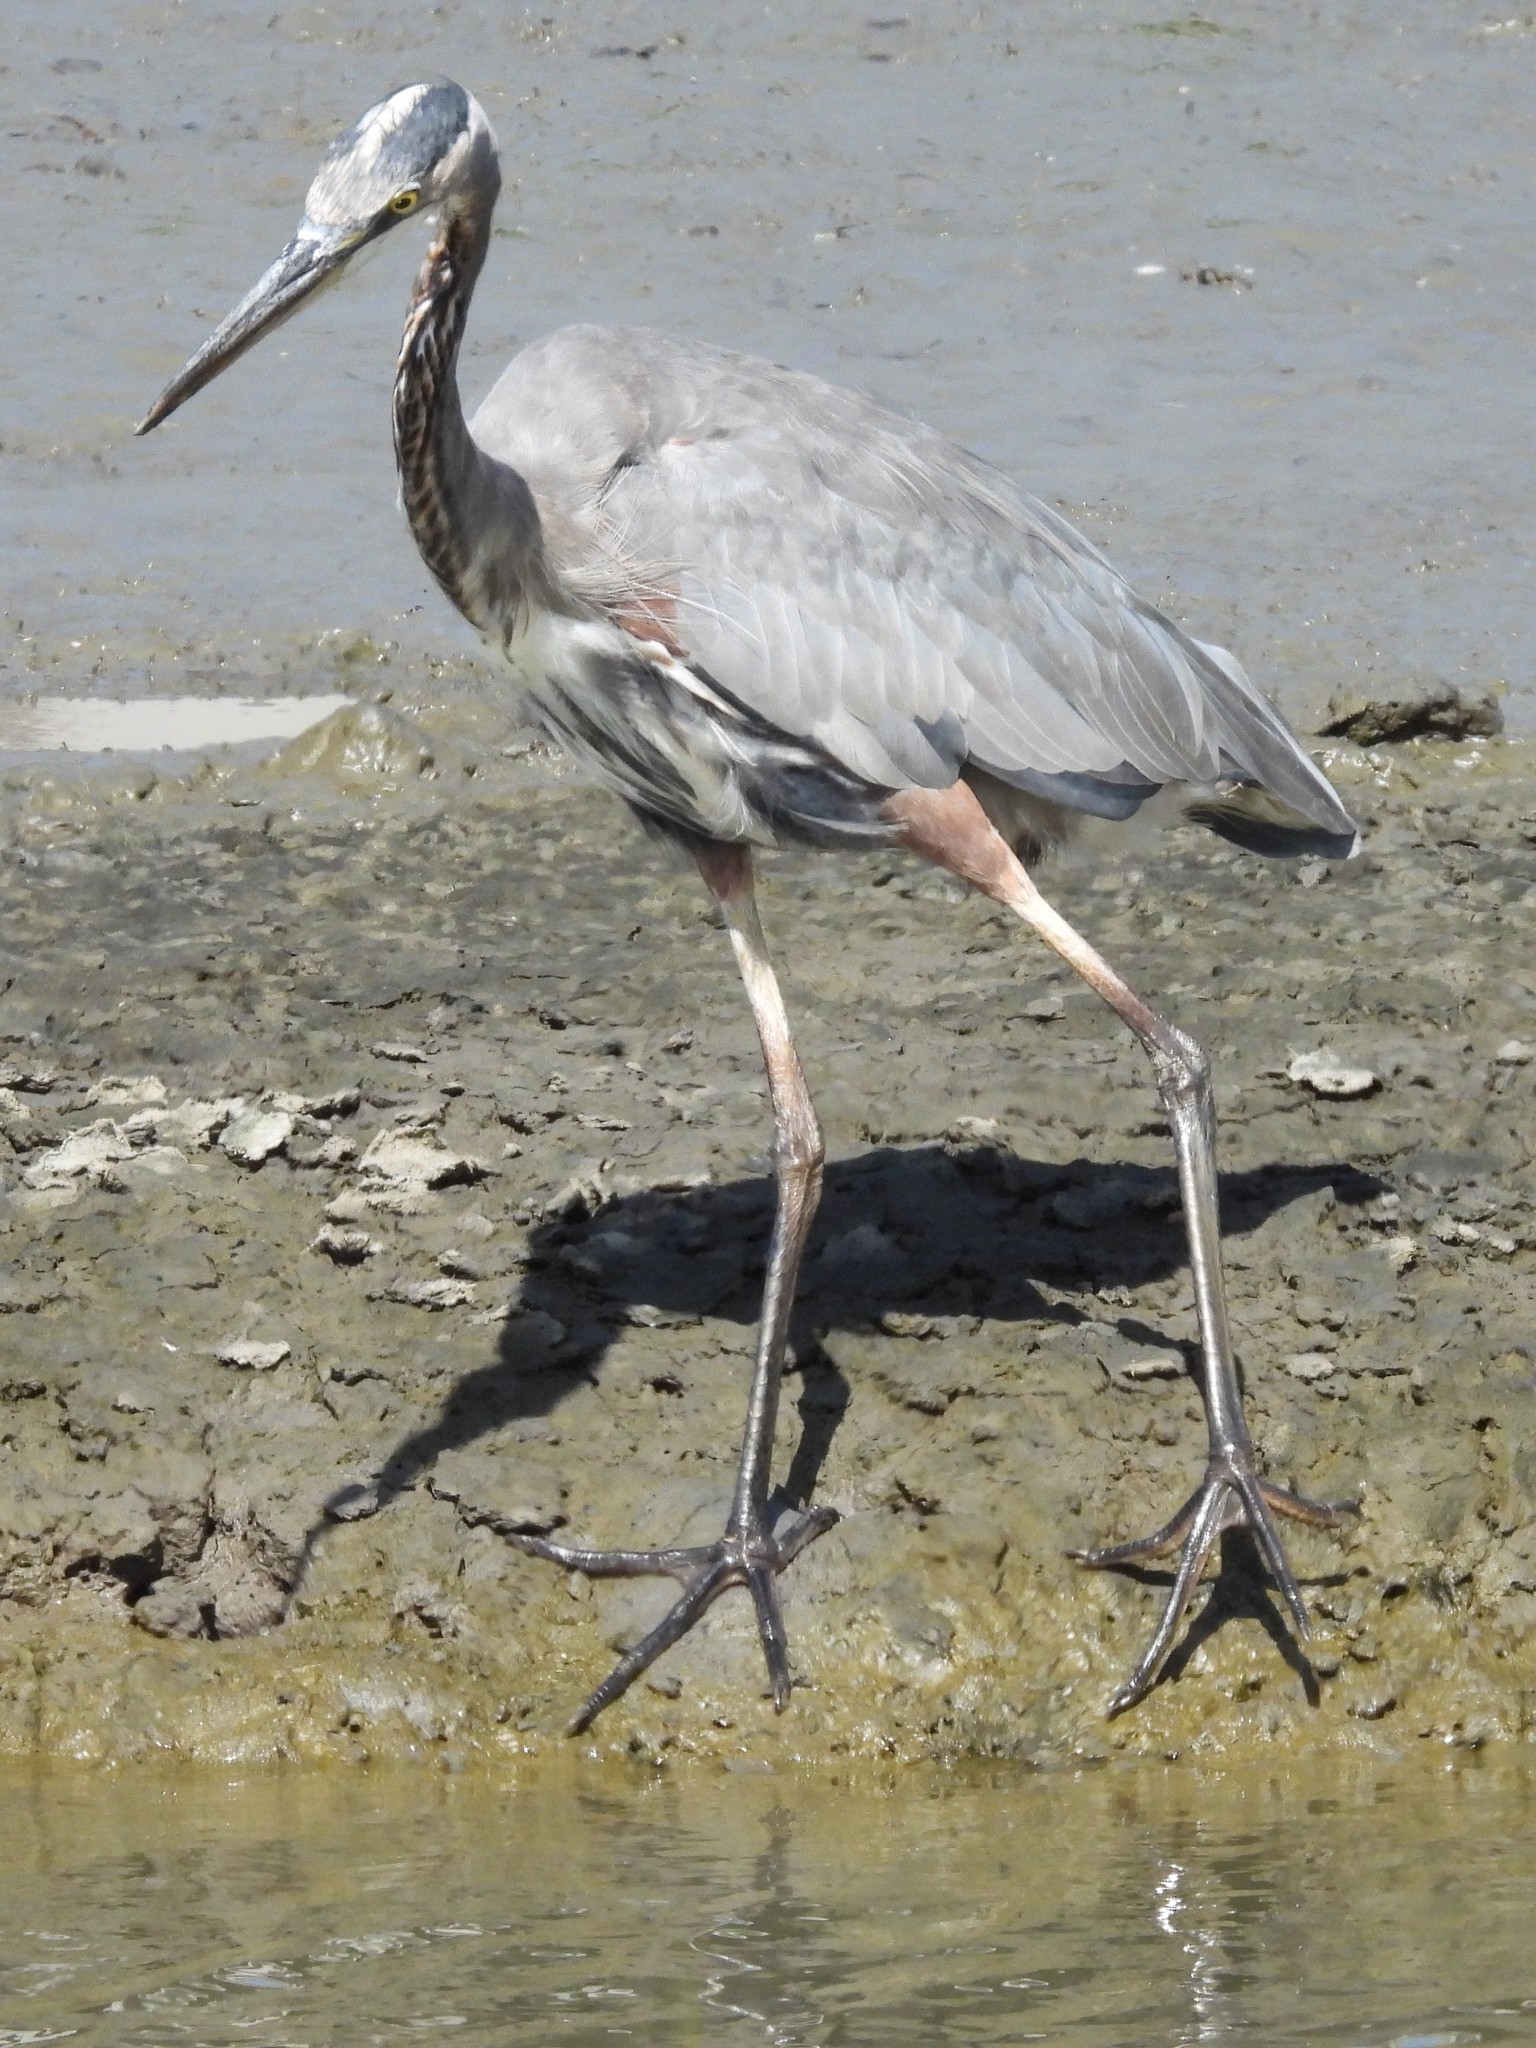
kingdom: Animalia
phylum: Chordata
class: Aves
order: Pelecaniformes
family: Ardeidae
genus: Ardea
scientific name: Ardea herodias
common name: Great blue heron
